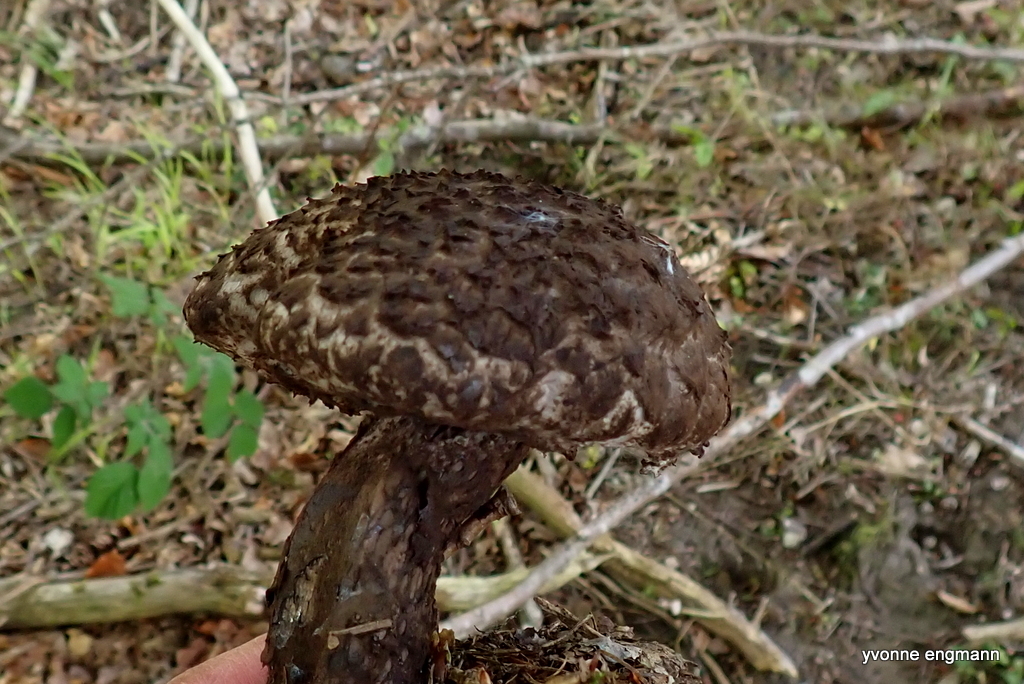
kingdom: Fungi
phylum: Basidiomycota
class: Agaricomycetes
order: Boletales
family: Boletaceae
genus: Strobilomyces
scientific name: Strobilomyces strobilaceus
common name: Old man of the woods
